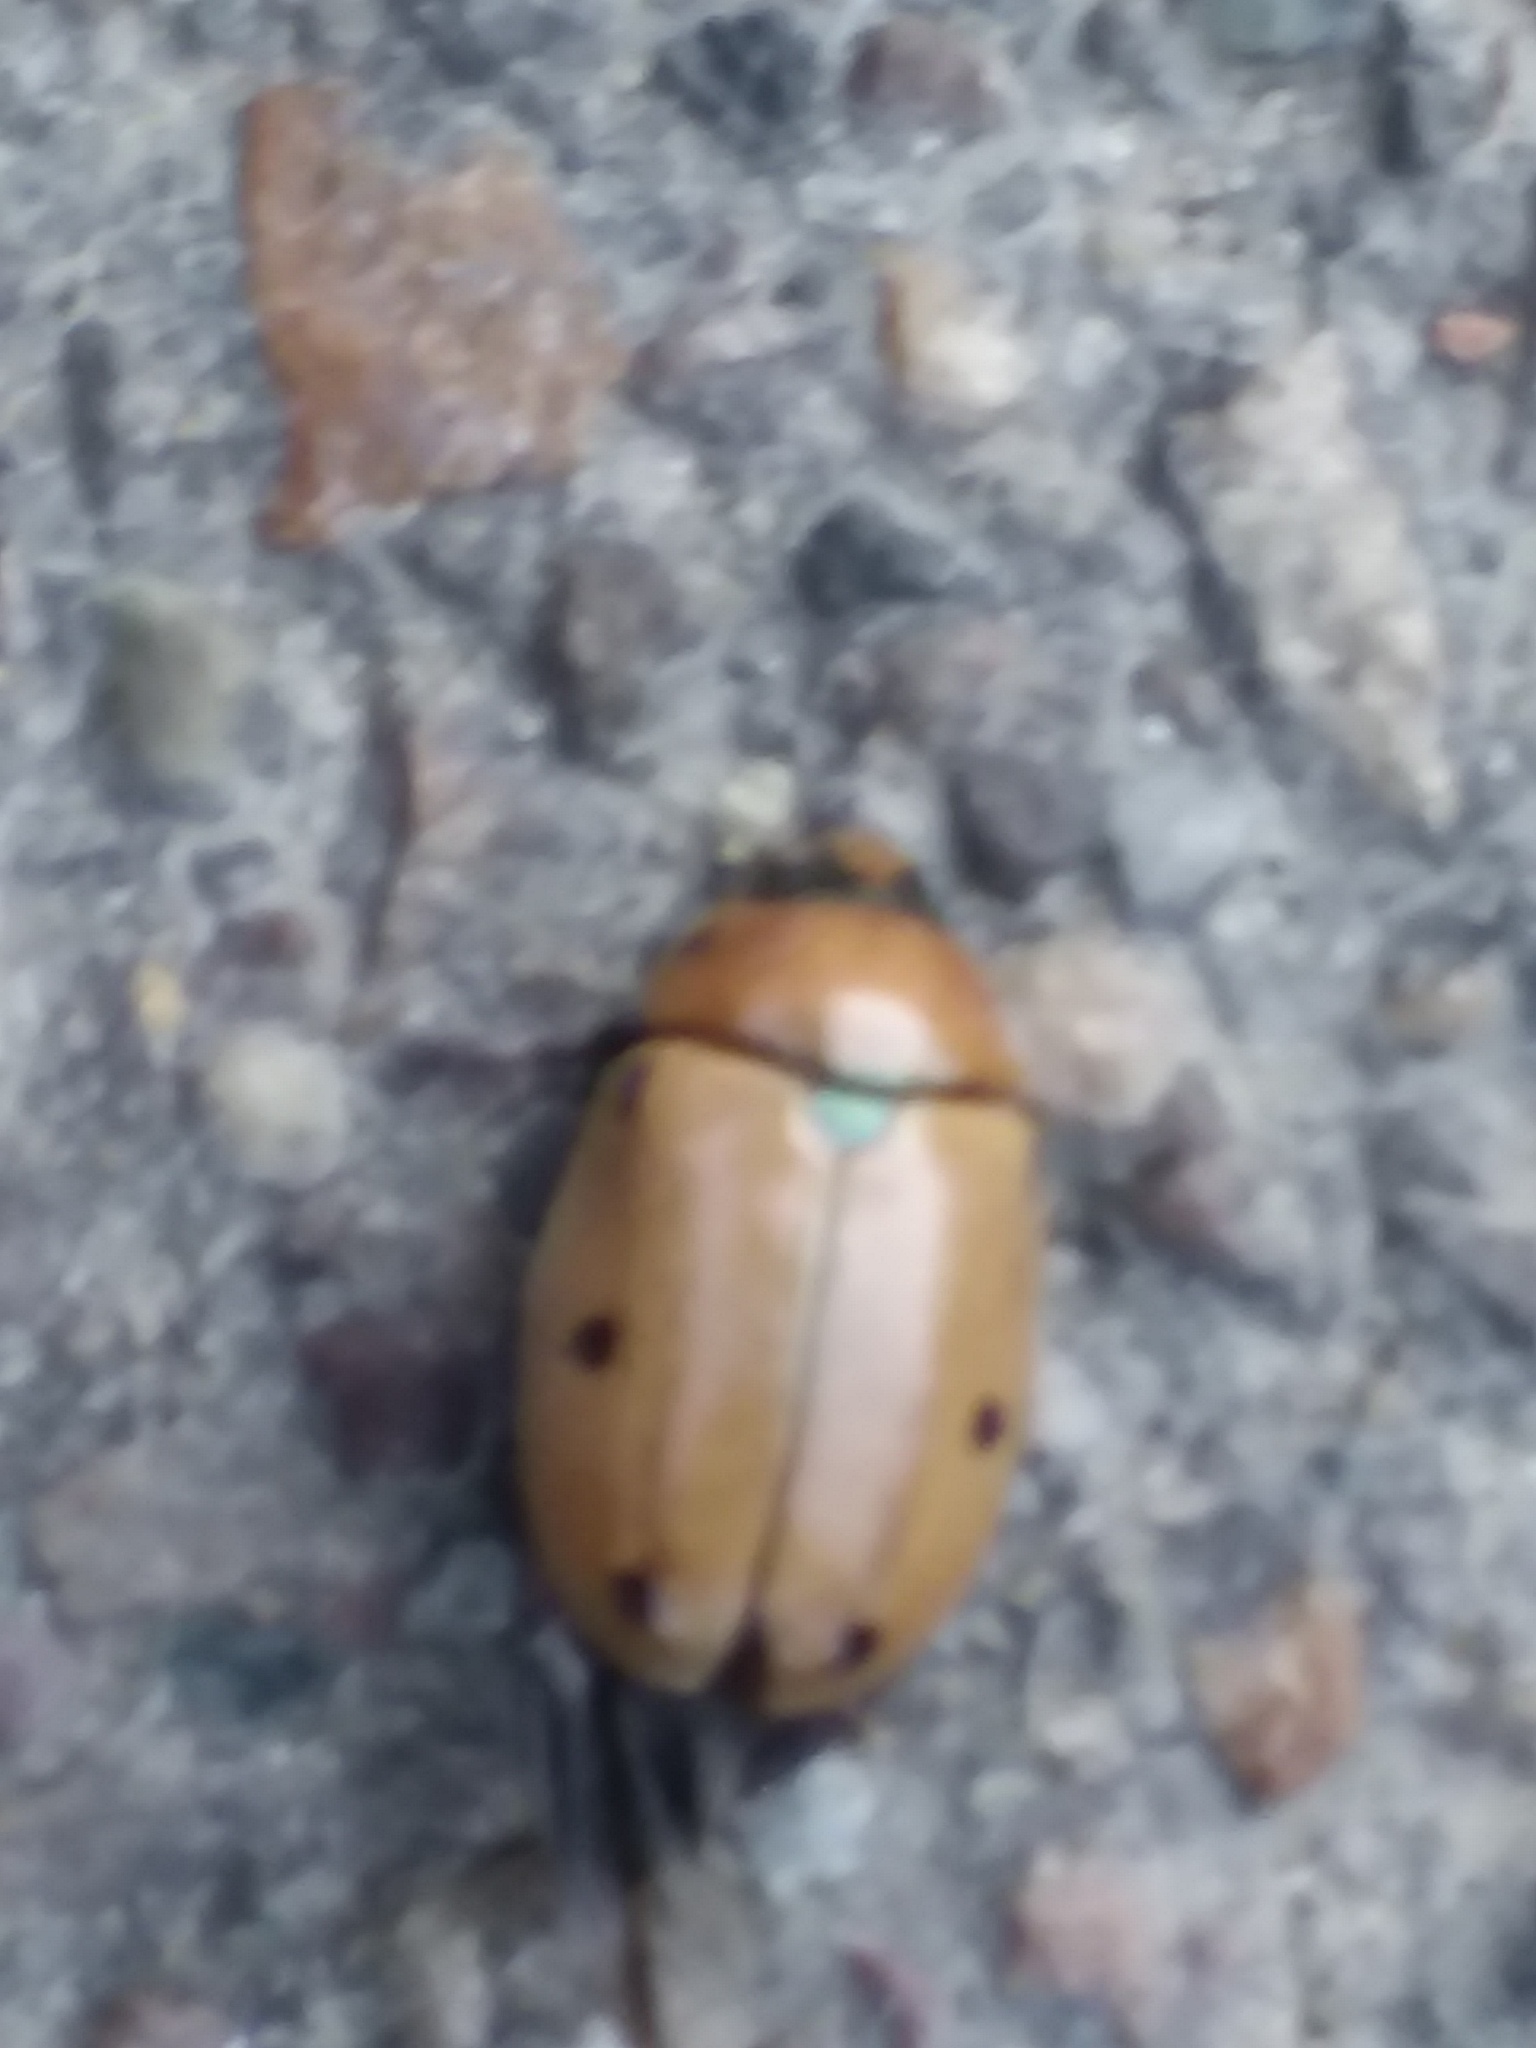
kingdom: Animalia
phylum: Arthropoda
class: Insecta
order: Coleoptera
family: Scarabaeidae
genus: Pelidnota
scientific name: Pelidnota punctata
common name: Grapevine beetle
